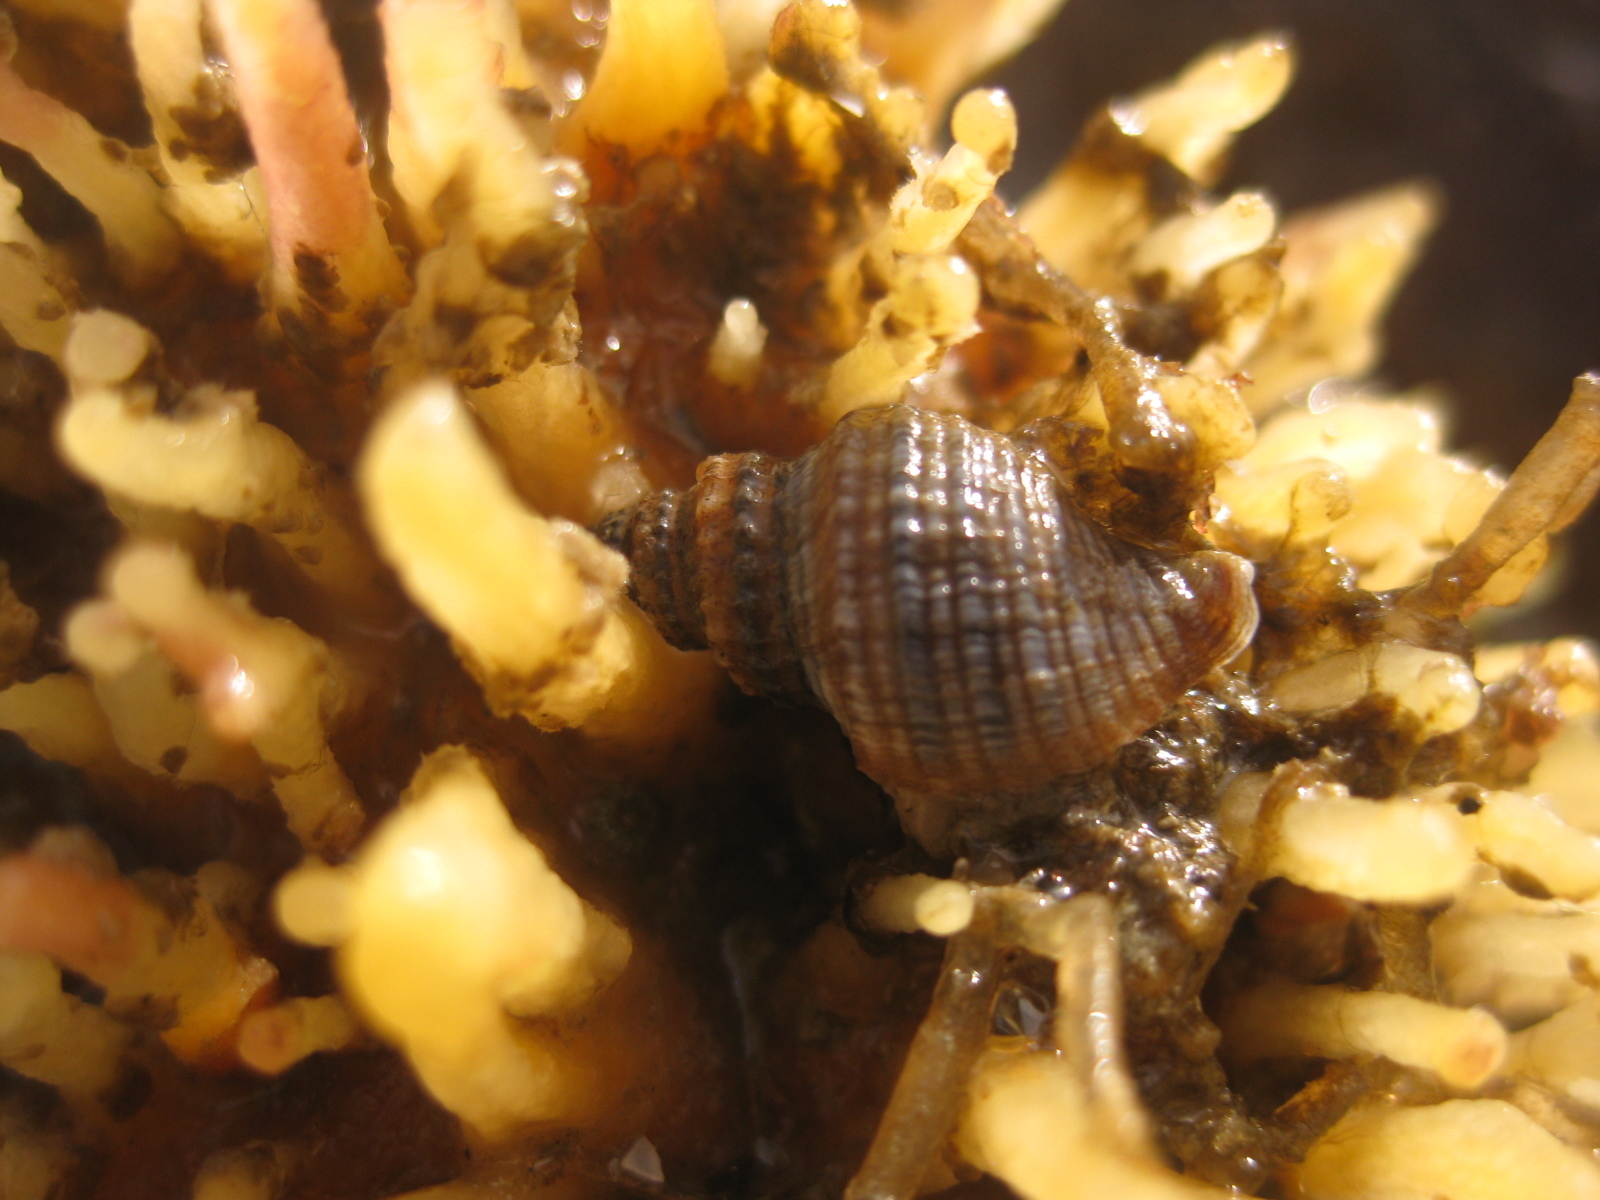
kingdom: Animalia
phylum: Mollusca
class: Gastropoda
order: Neogastropoda
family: Muricidae
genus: Xymene
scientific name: Xymene plebeius
